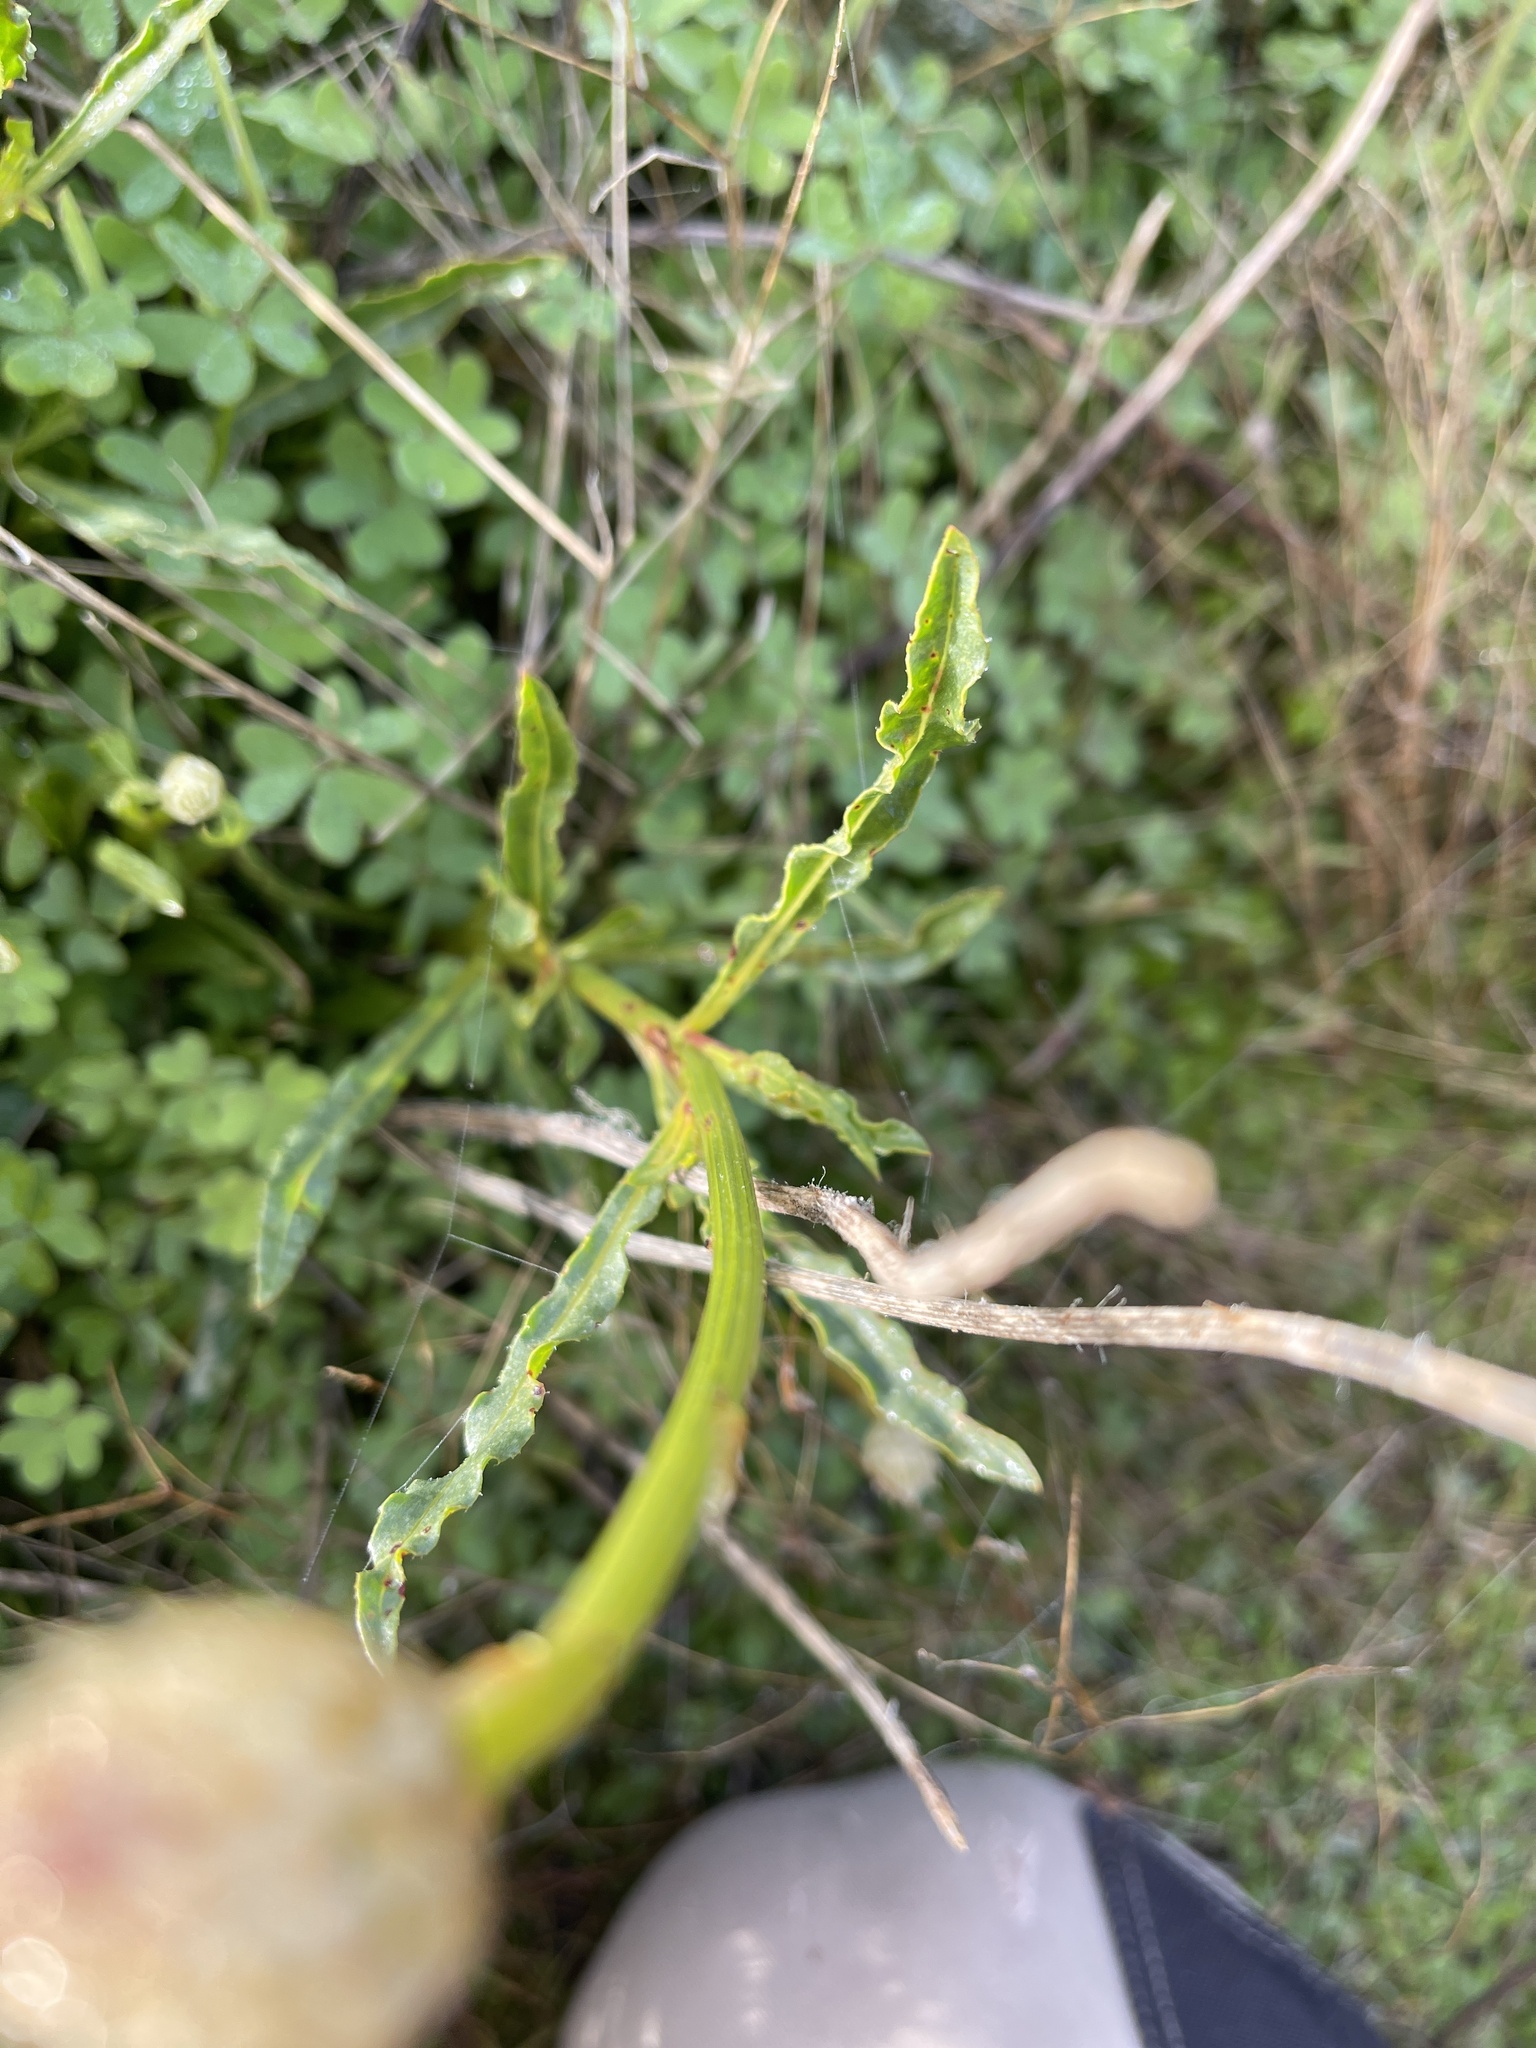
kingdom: Plantae
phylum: Tracheophyta
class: Magnoliopsida
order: Caryophyllales
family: Amaranthaceae
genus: Ptilotus
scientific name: Ptilotus macrocephalus
